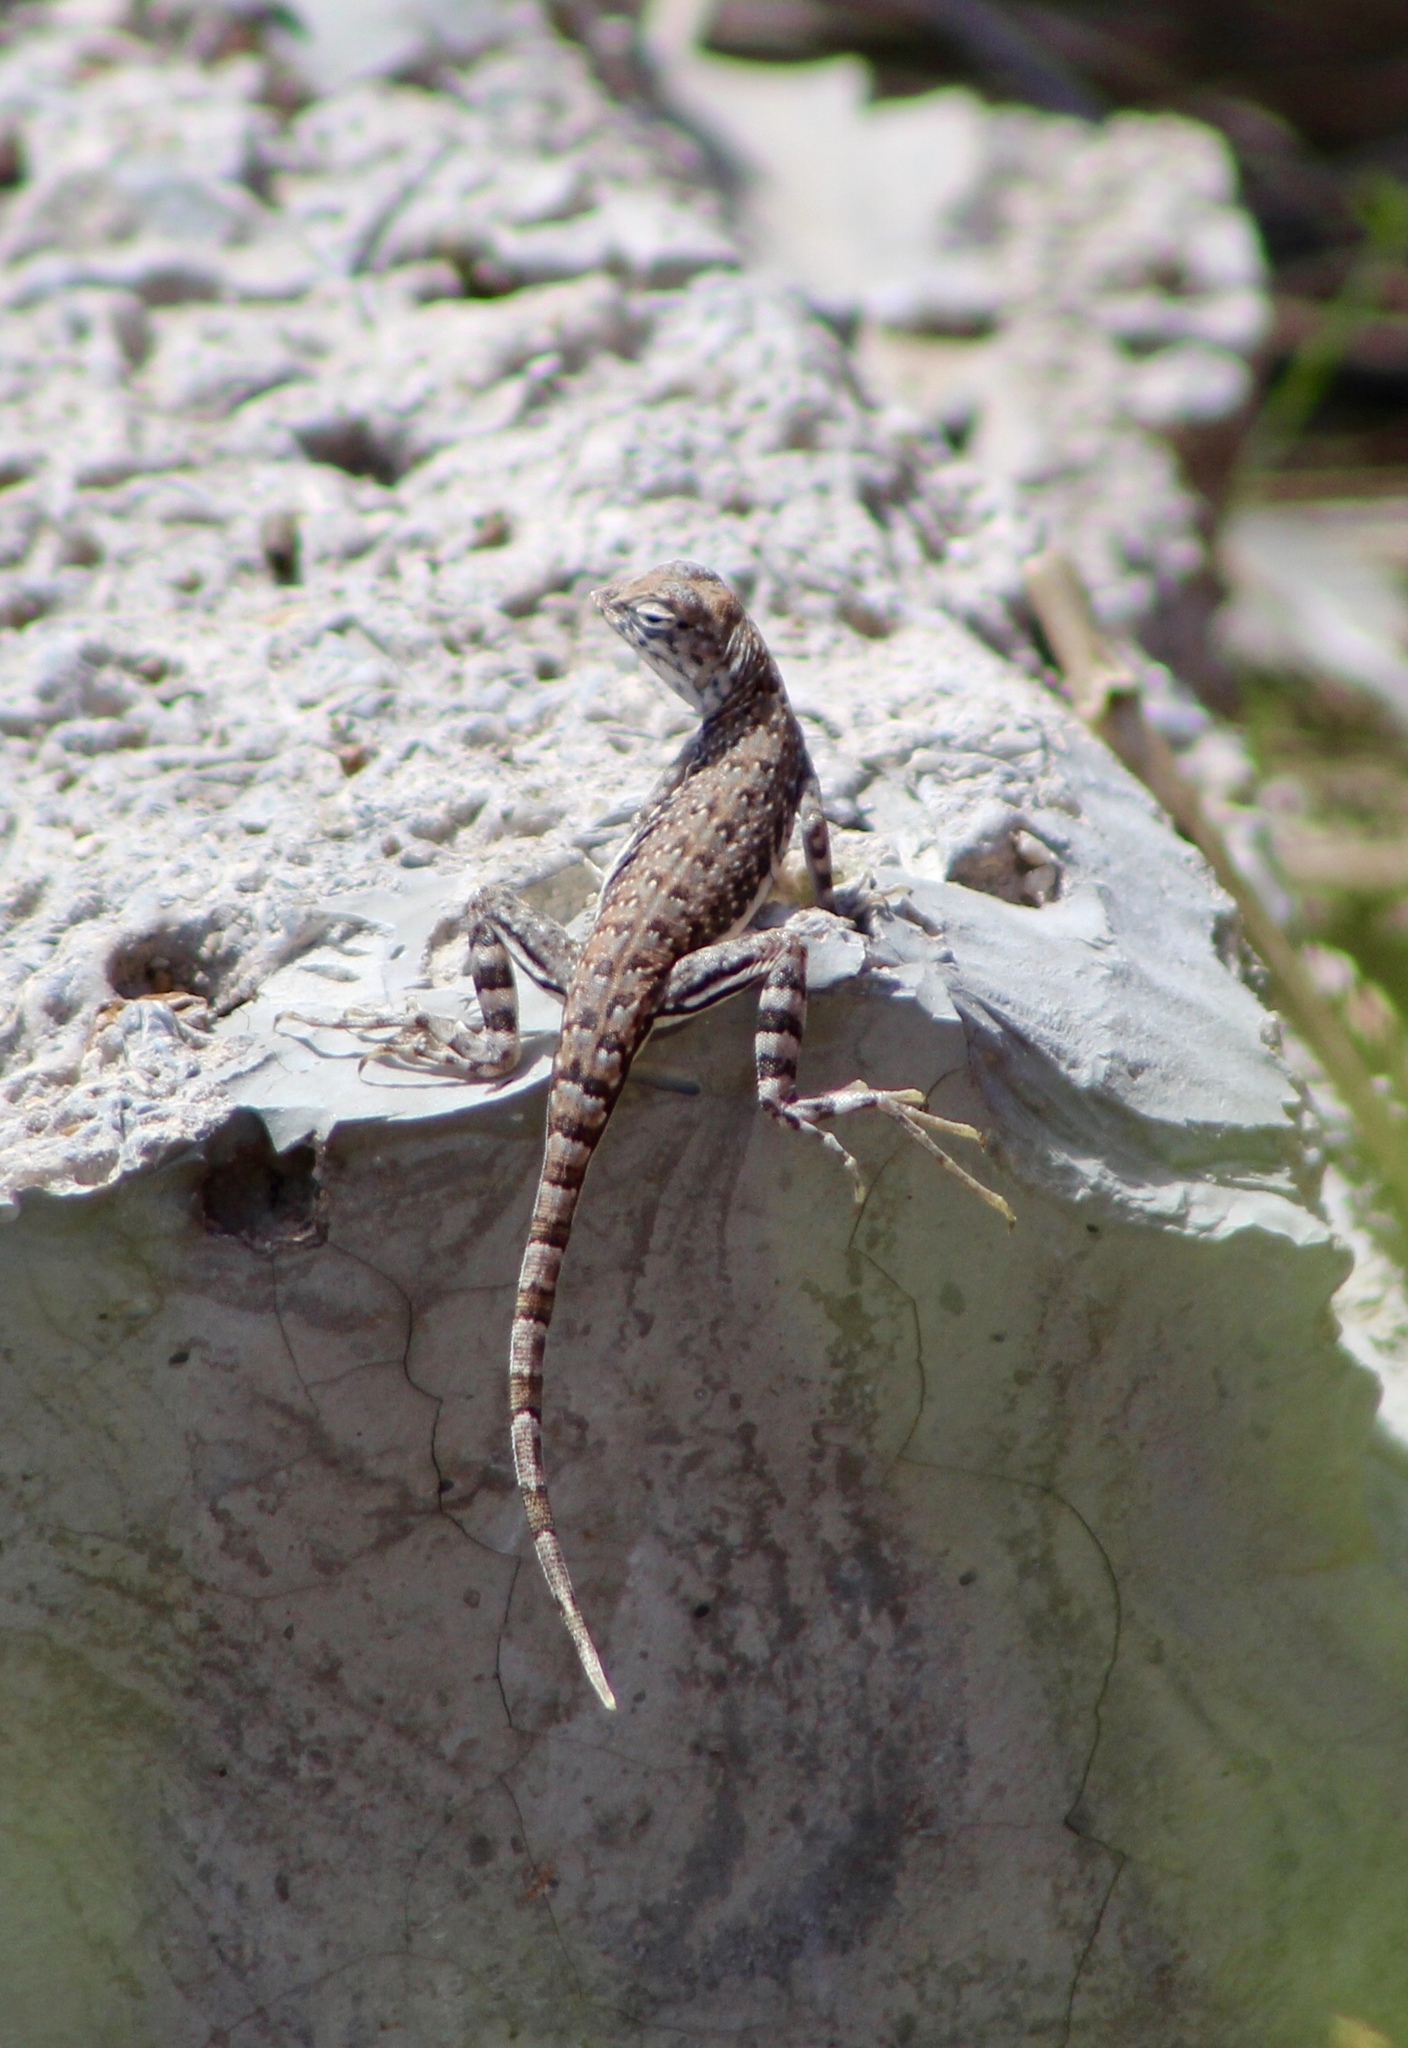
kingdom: Animalia
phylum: Chordata
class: Squamata
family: Phrynosomatidae
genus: Callisaurus
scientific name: Callisaurus draconoides
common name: Zebra-tailed lizard
